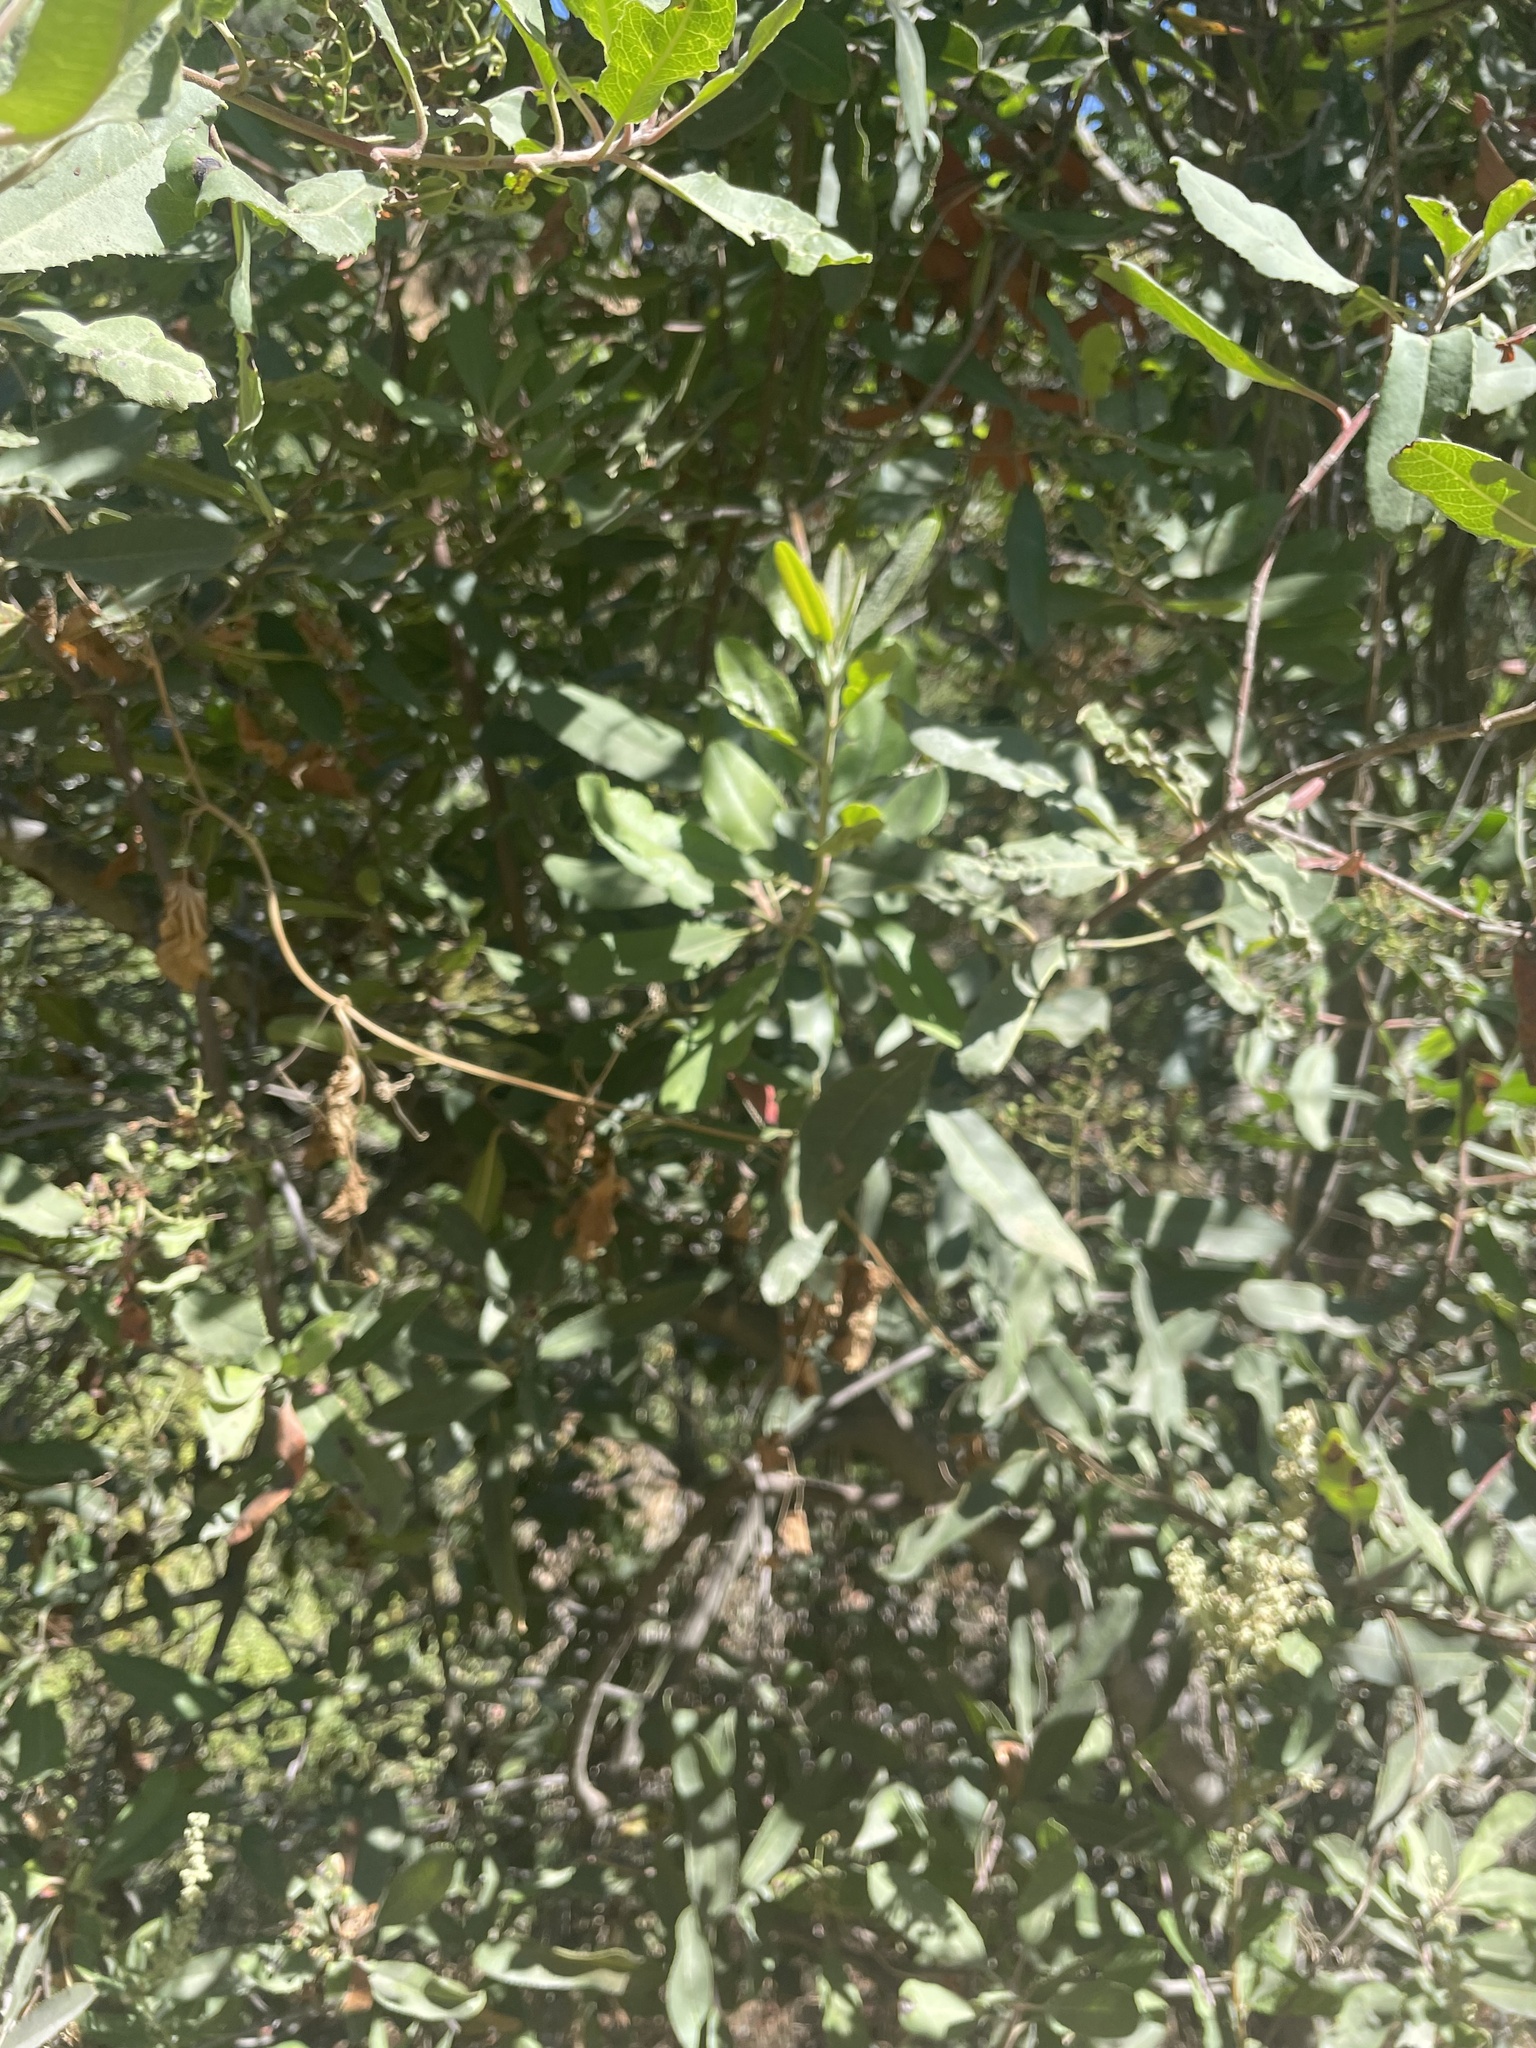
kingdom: Plantae
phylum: Tracheophyta
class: Magnoliopsida
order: Rosales
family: Rosaceae
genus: Heteromeles
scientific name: Heteromeles arbutifolia
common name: California-holly
